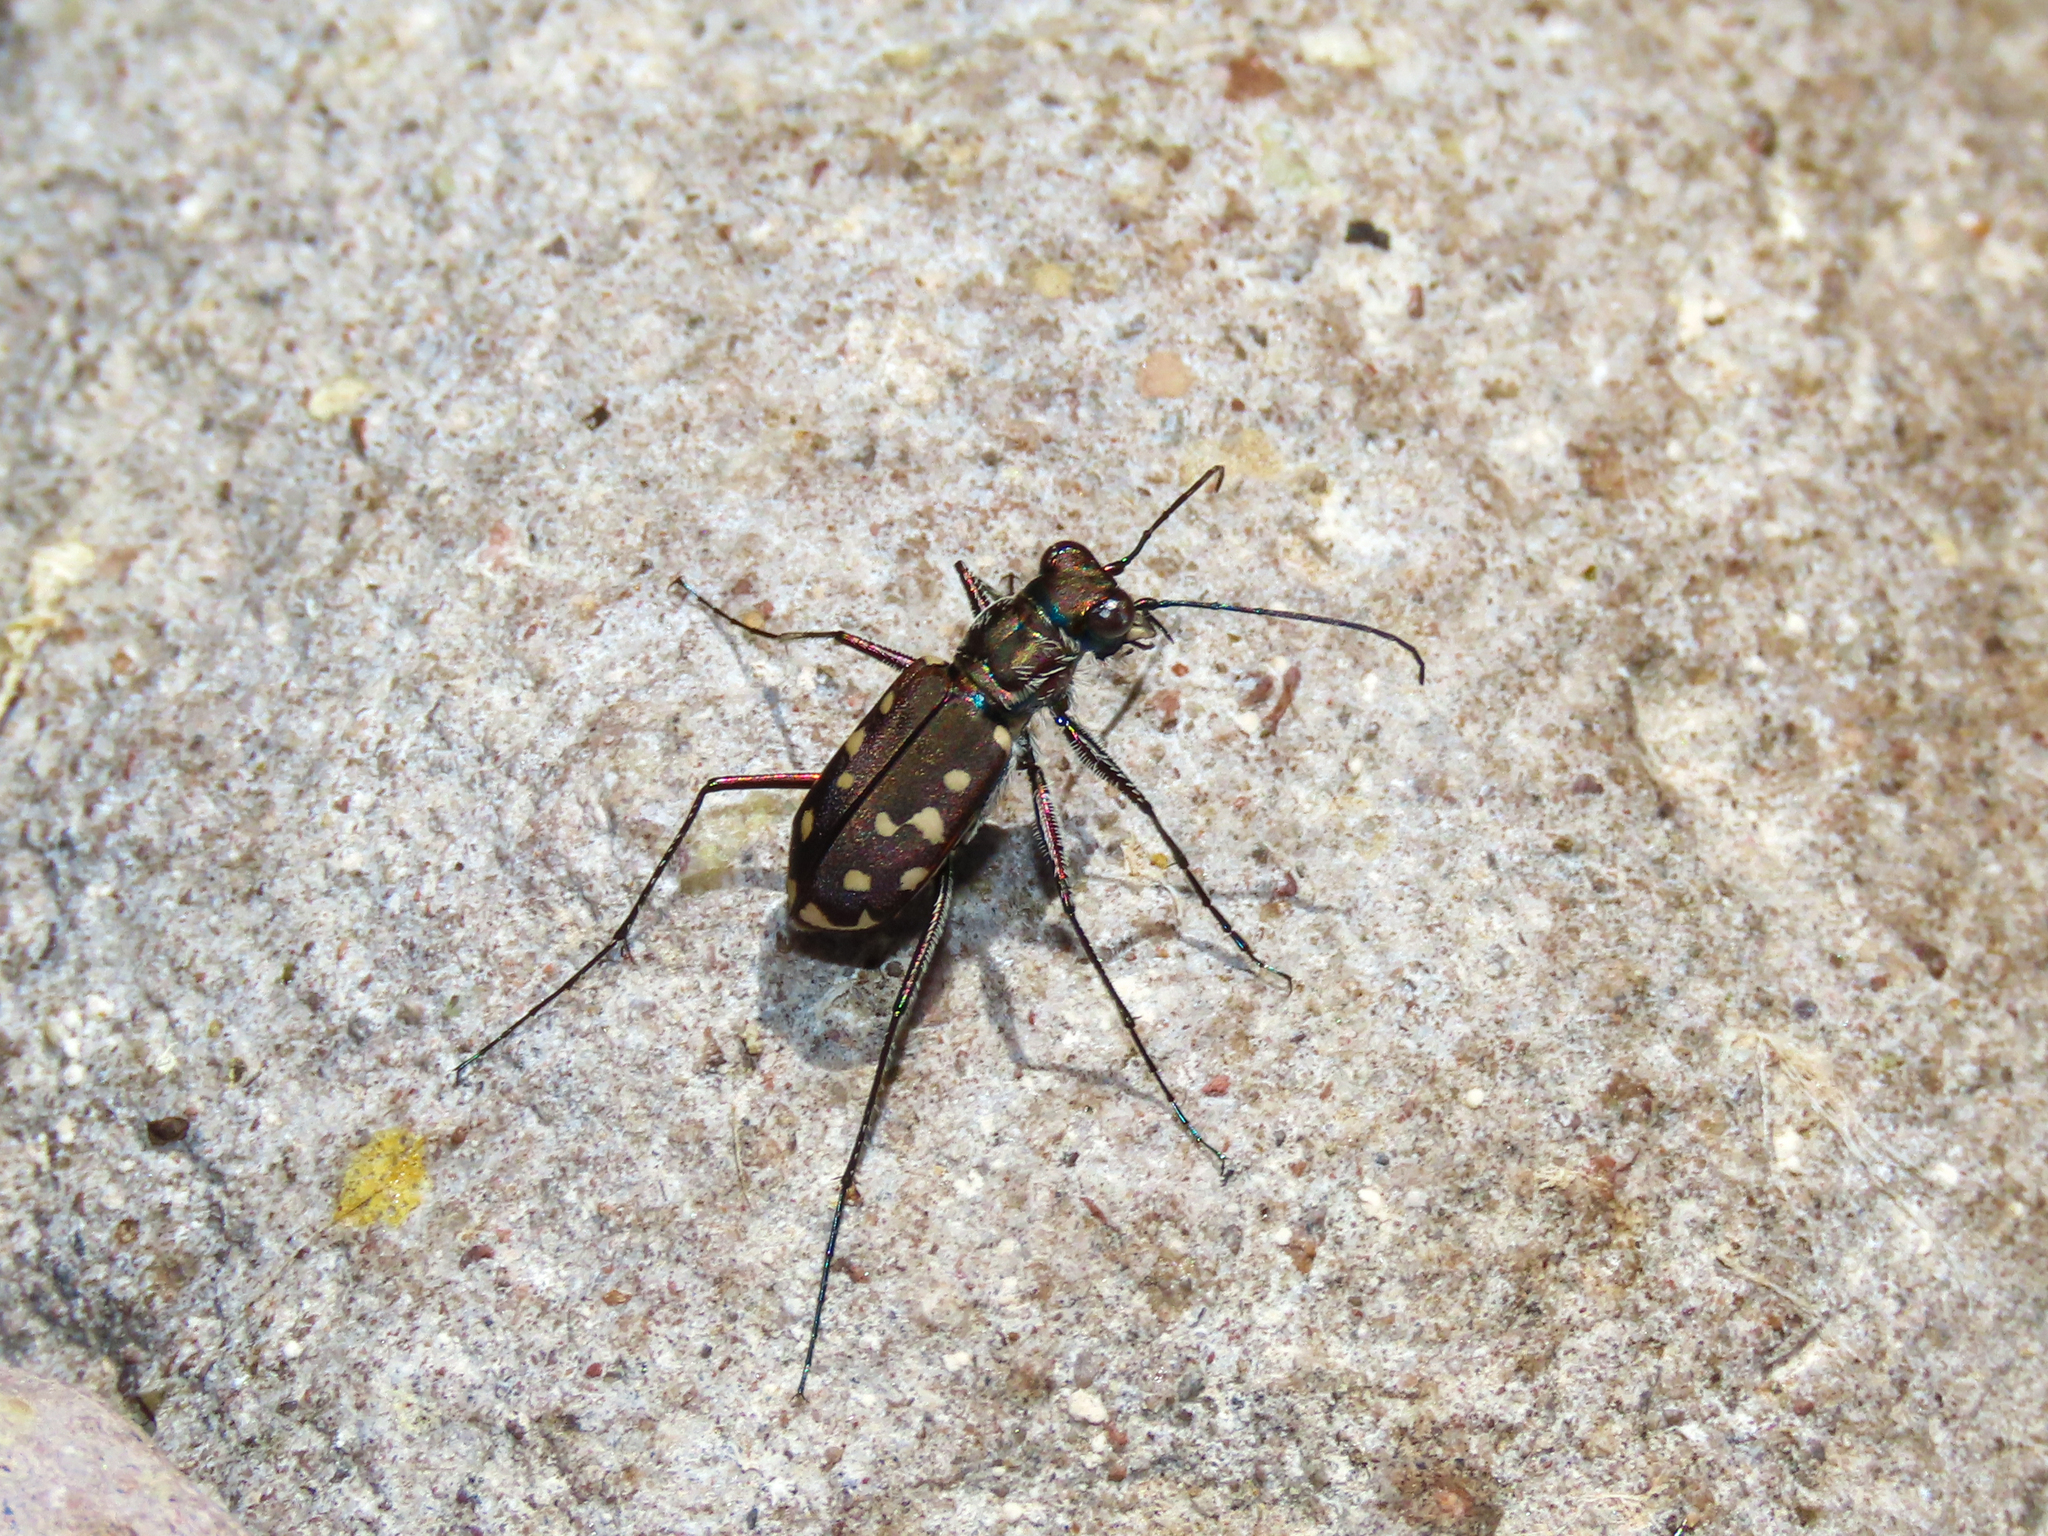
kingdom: Animalia
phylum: Arthropoda
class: Insecta
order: Coleoptera
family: Carabidae
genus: Cicindela
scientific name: Cicindela sedecimpunctata
